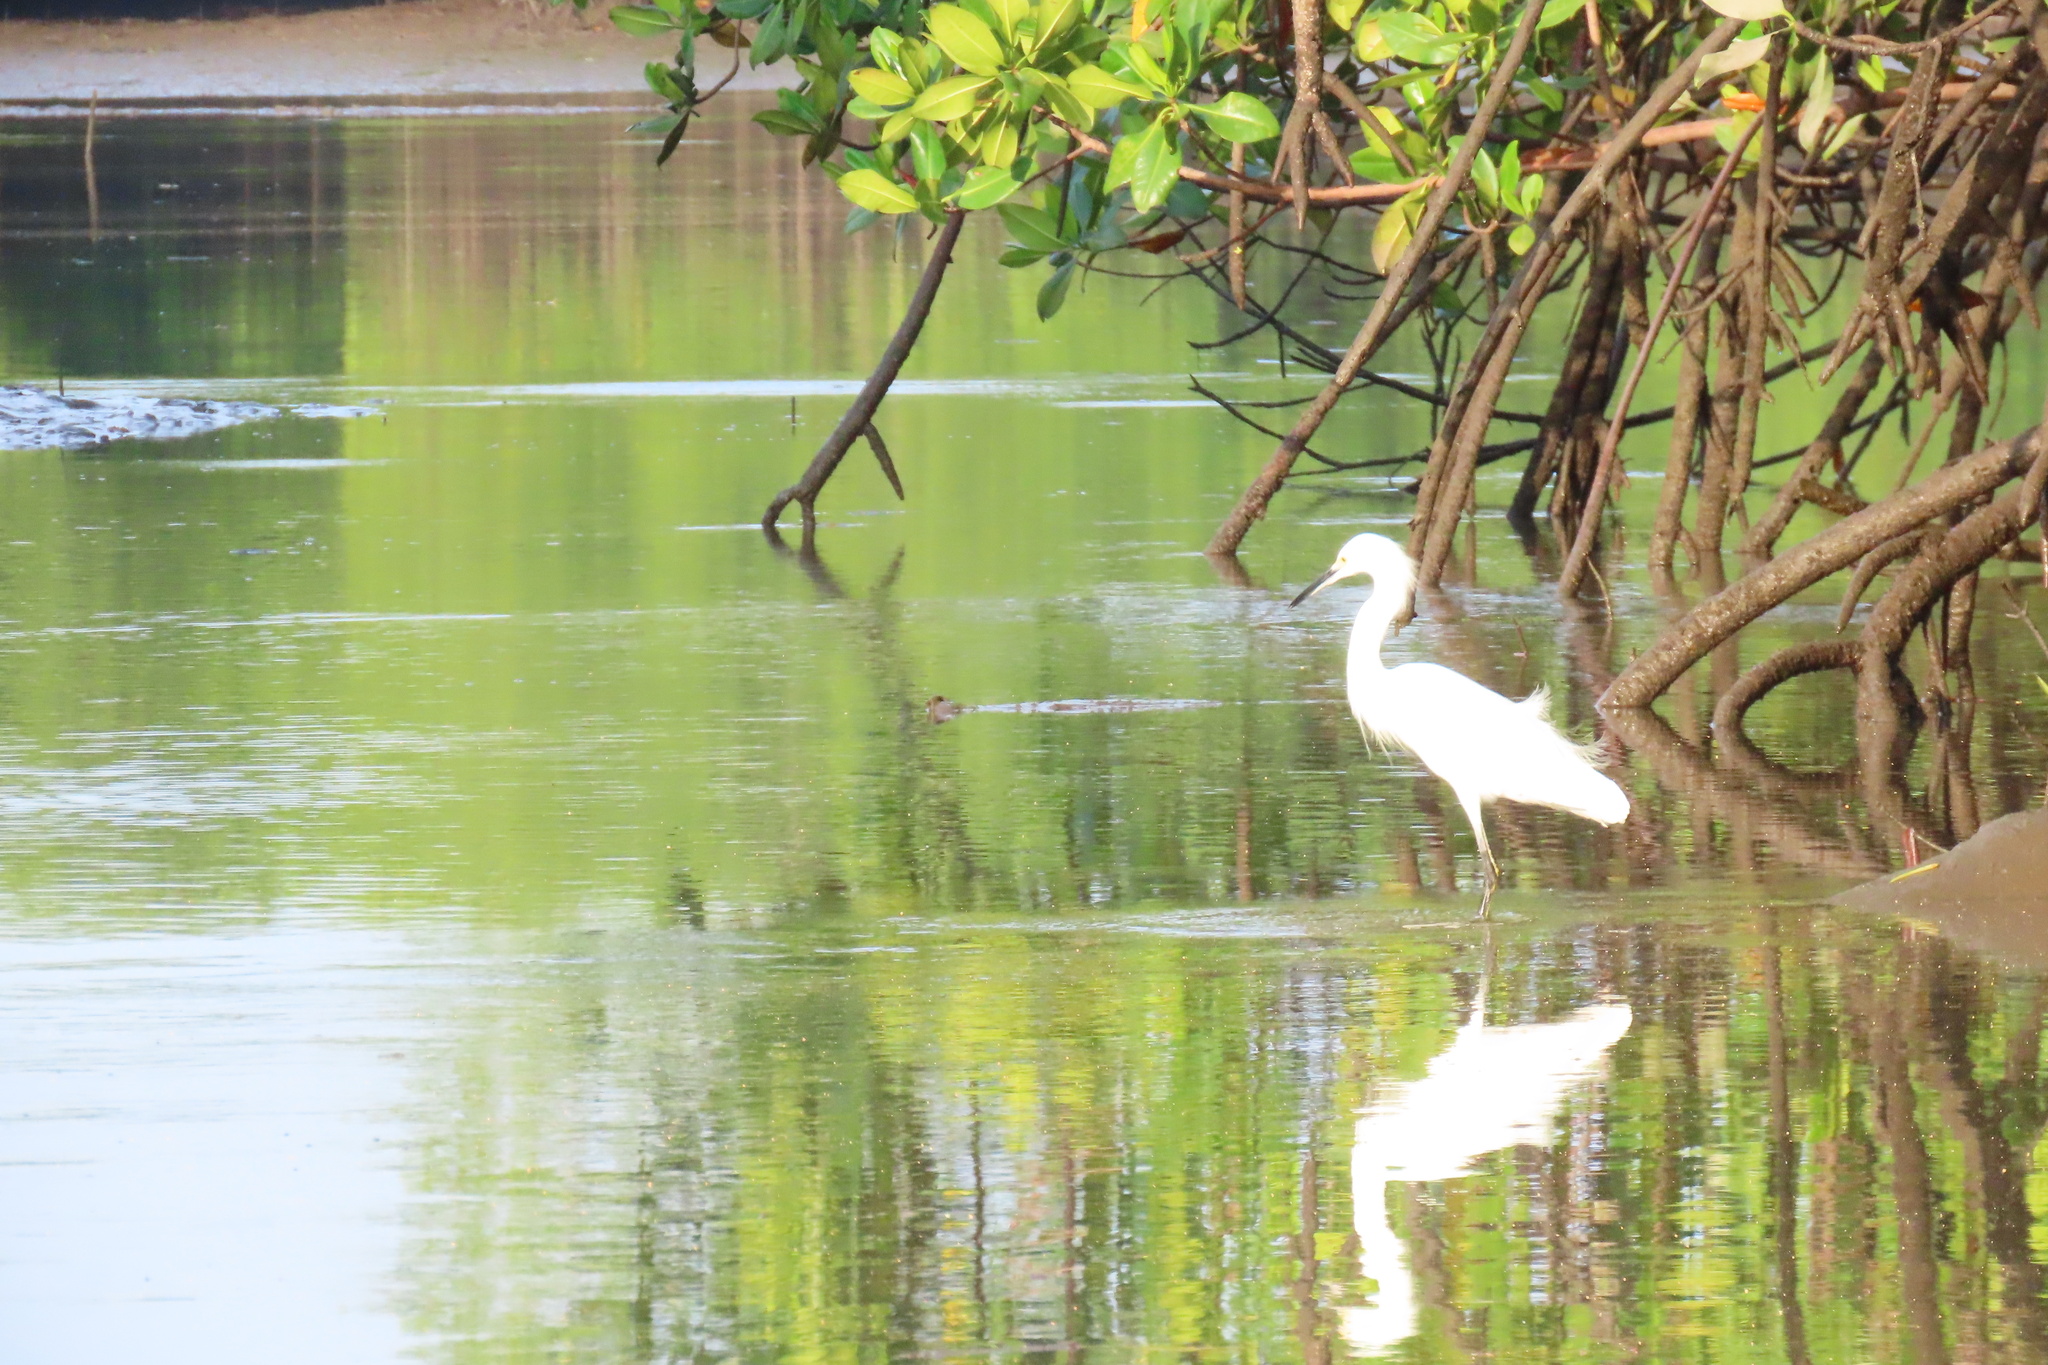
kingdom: Animalia
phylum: Chordata
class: Aves
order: Pelecaniformes
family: Ardeidae
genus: Egretta
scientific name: Egretta thula
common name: Snowy egret
